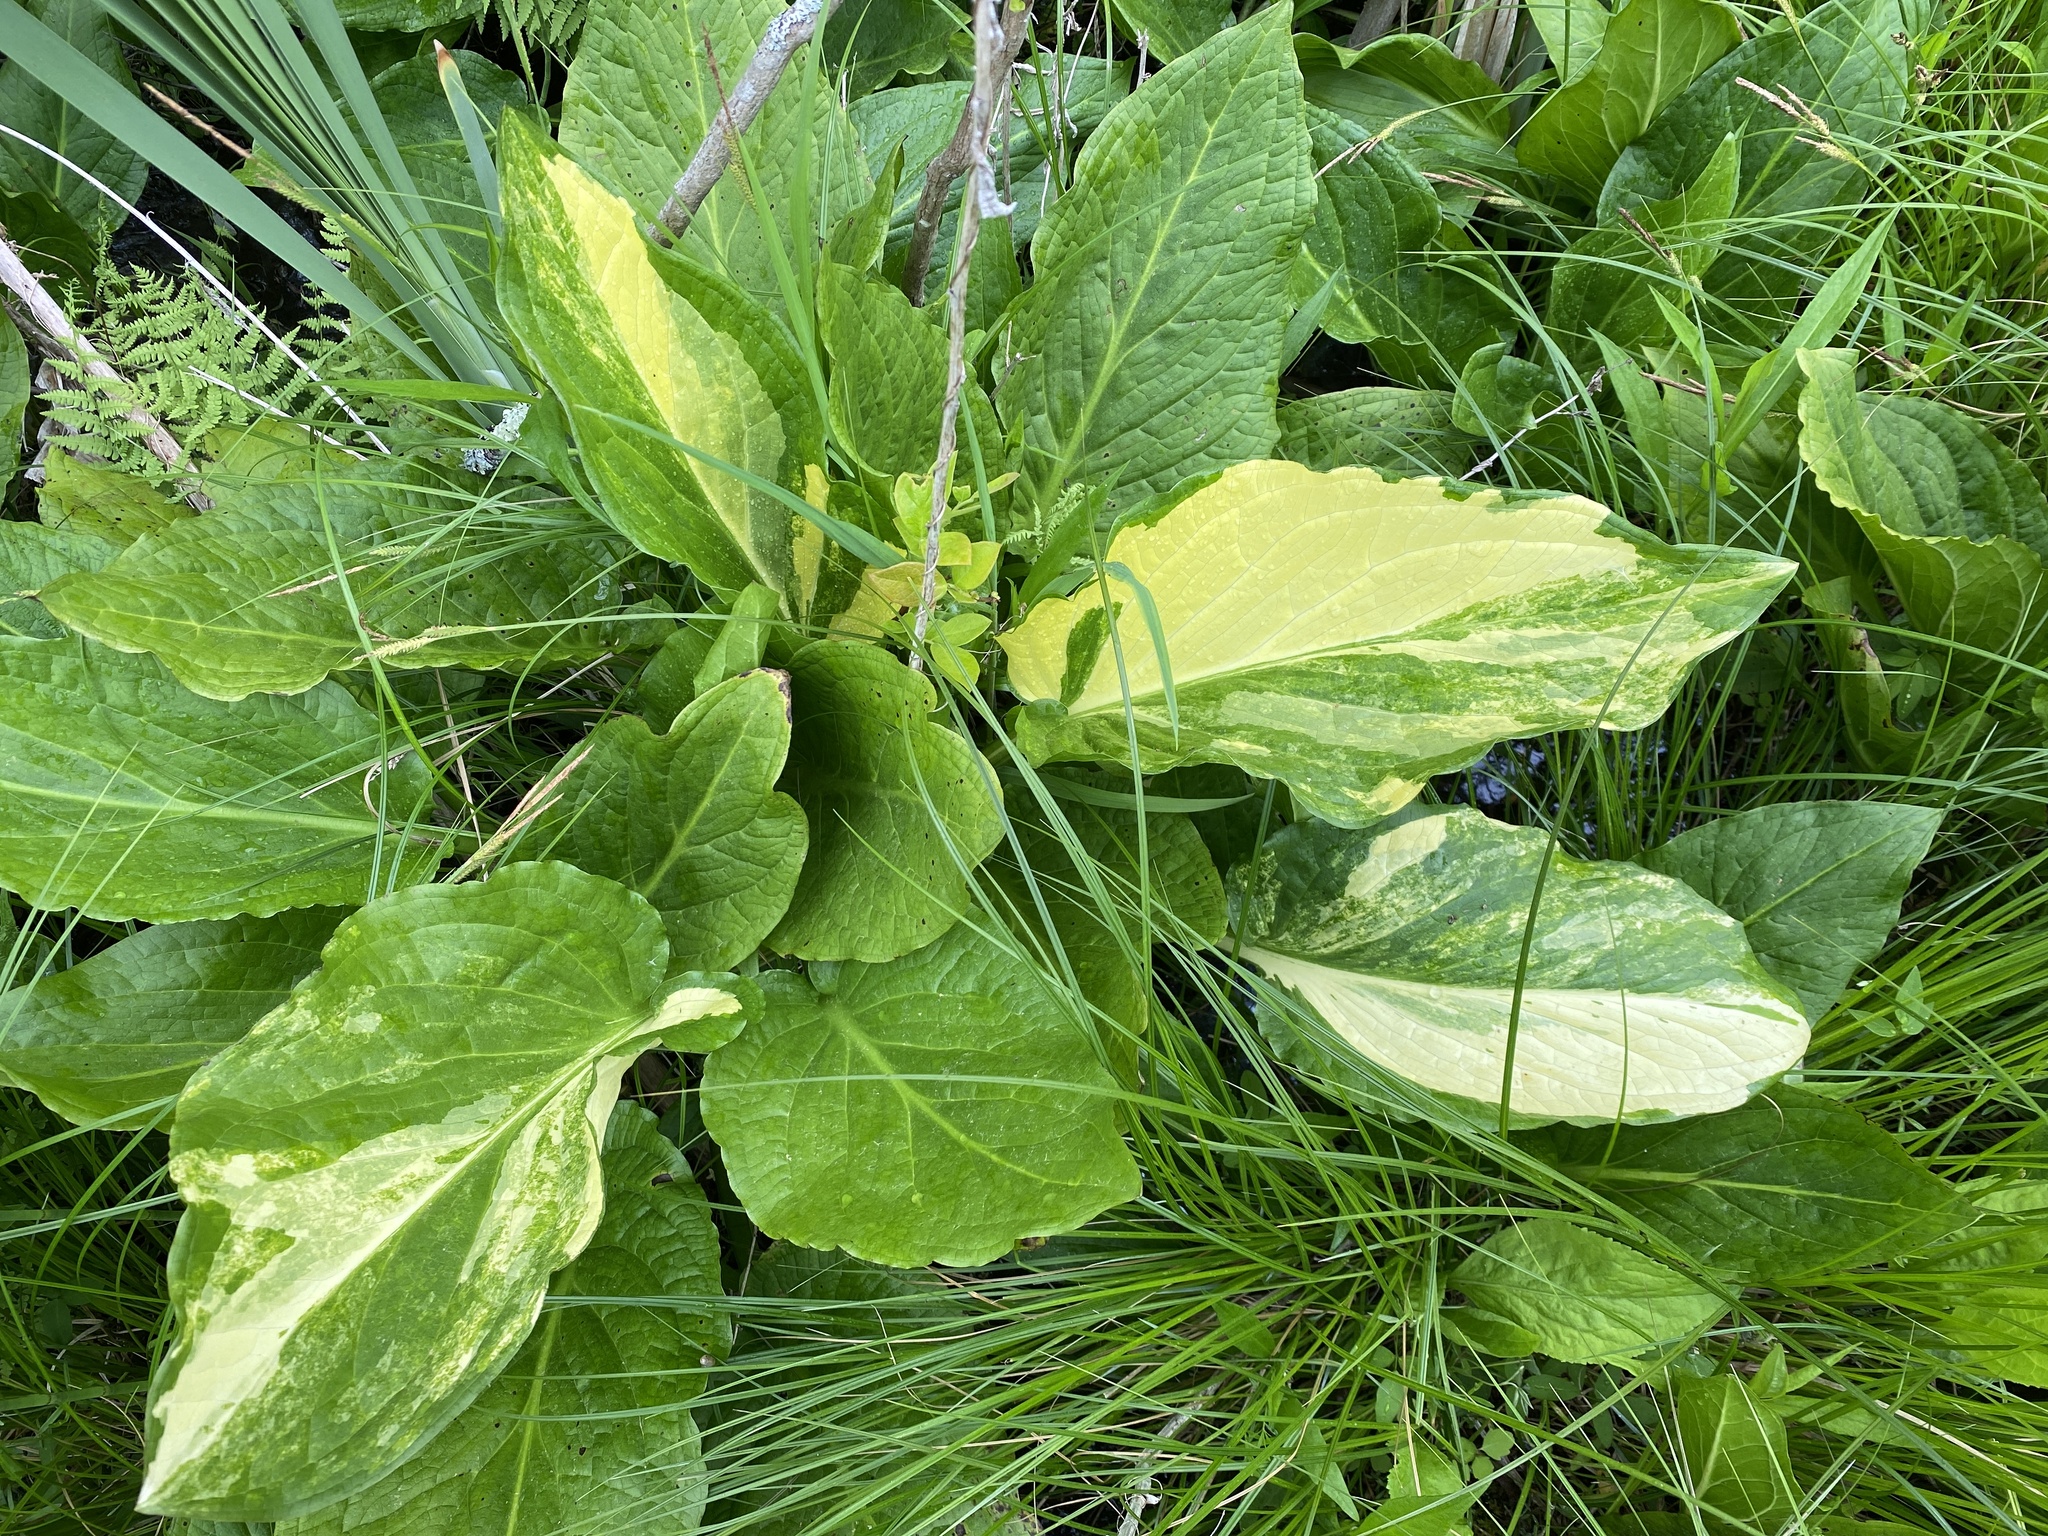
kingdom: Plantae
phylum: Tracheophyta
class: Liliopsida
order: Alismatales
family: Araceae
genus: Symplocarpus
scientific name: Symplocarpus foetidus
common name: Eastern skunk cabbage
